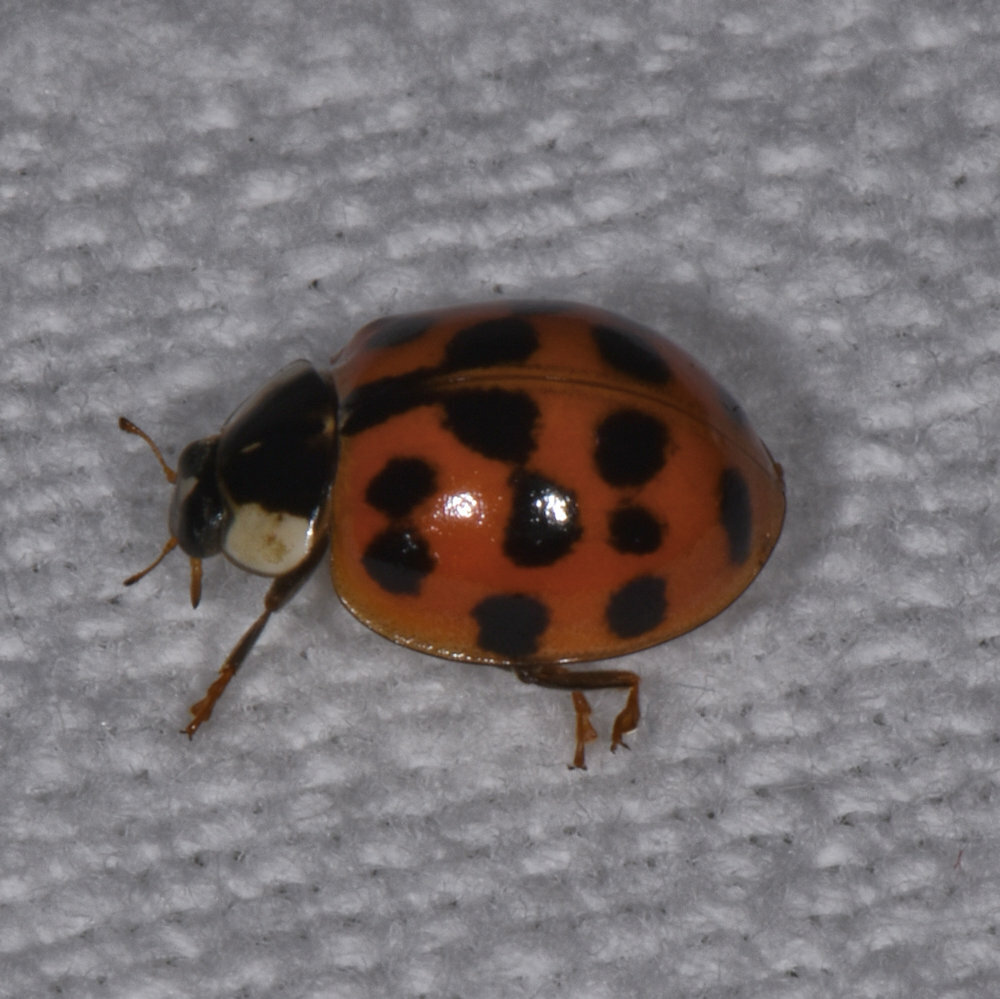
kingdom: Animalia
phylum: Arthropoda
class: Insecta
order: Coleoptera
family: Coccinellidae
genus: Harmonia
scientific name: Harmonia axyridis
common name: Harlequin ladybird
